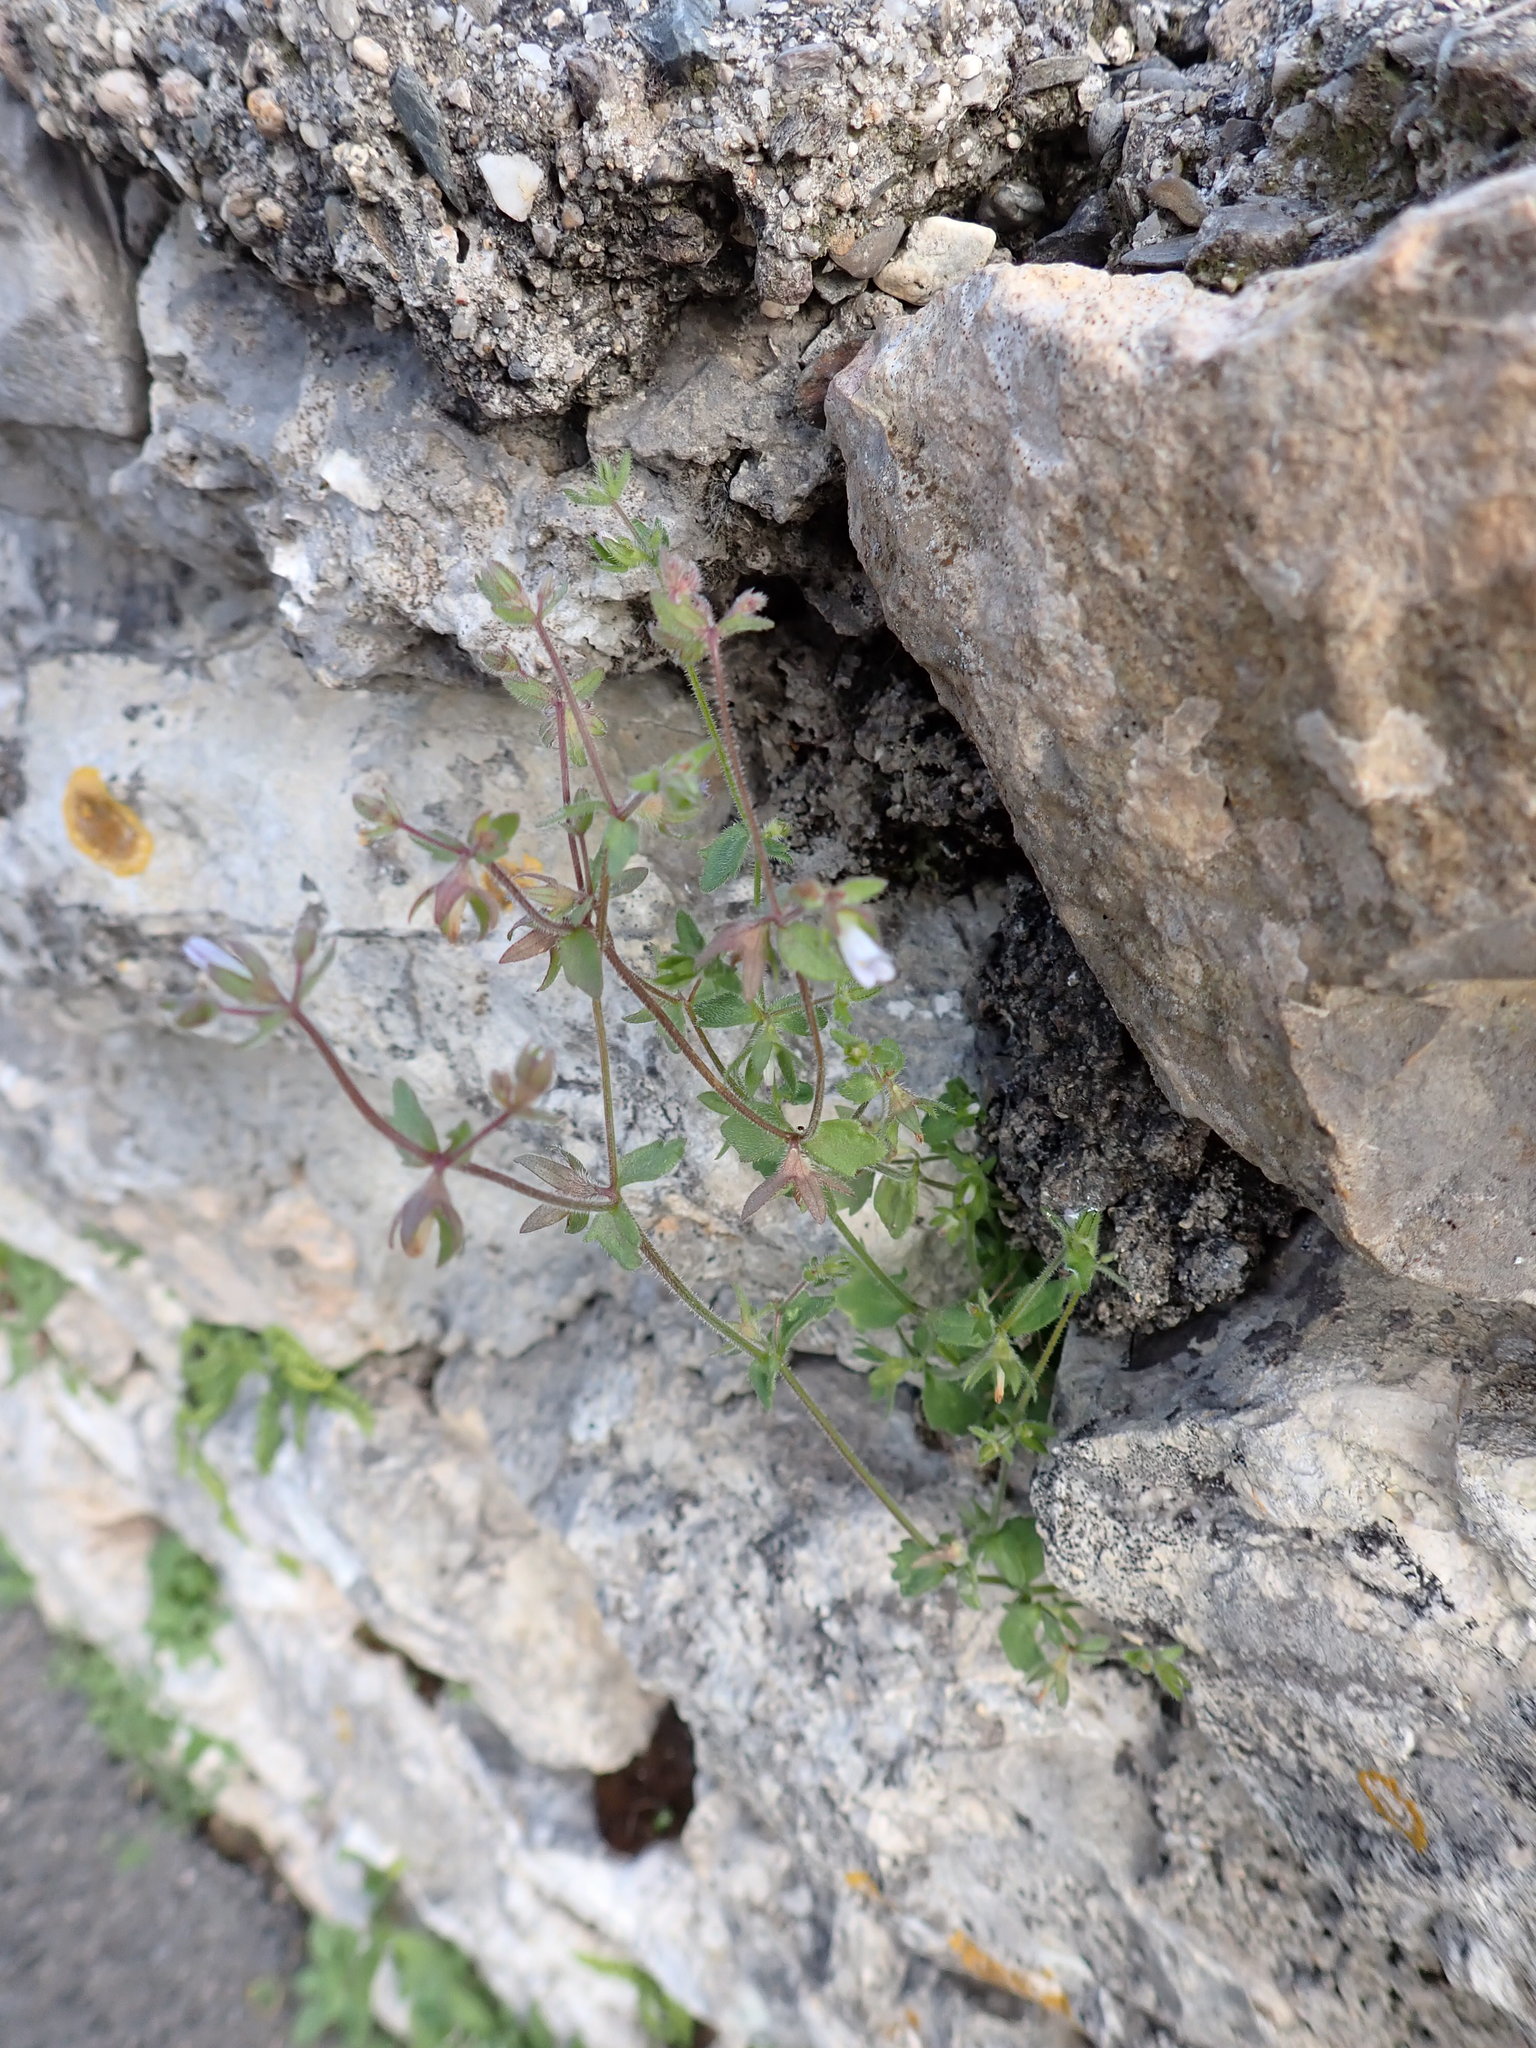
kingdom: Plantae
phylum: Tracheophyta
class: Magnoliopsida
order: Asterales
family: Campanulaceae
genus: Campanula
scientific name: Campanula erinus
